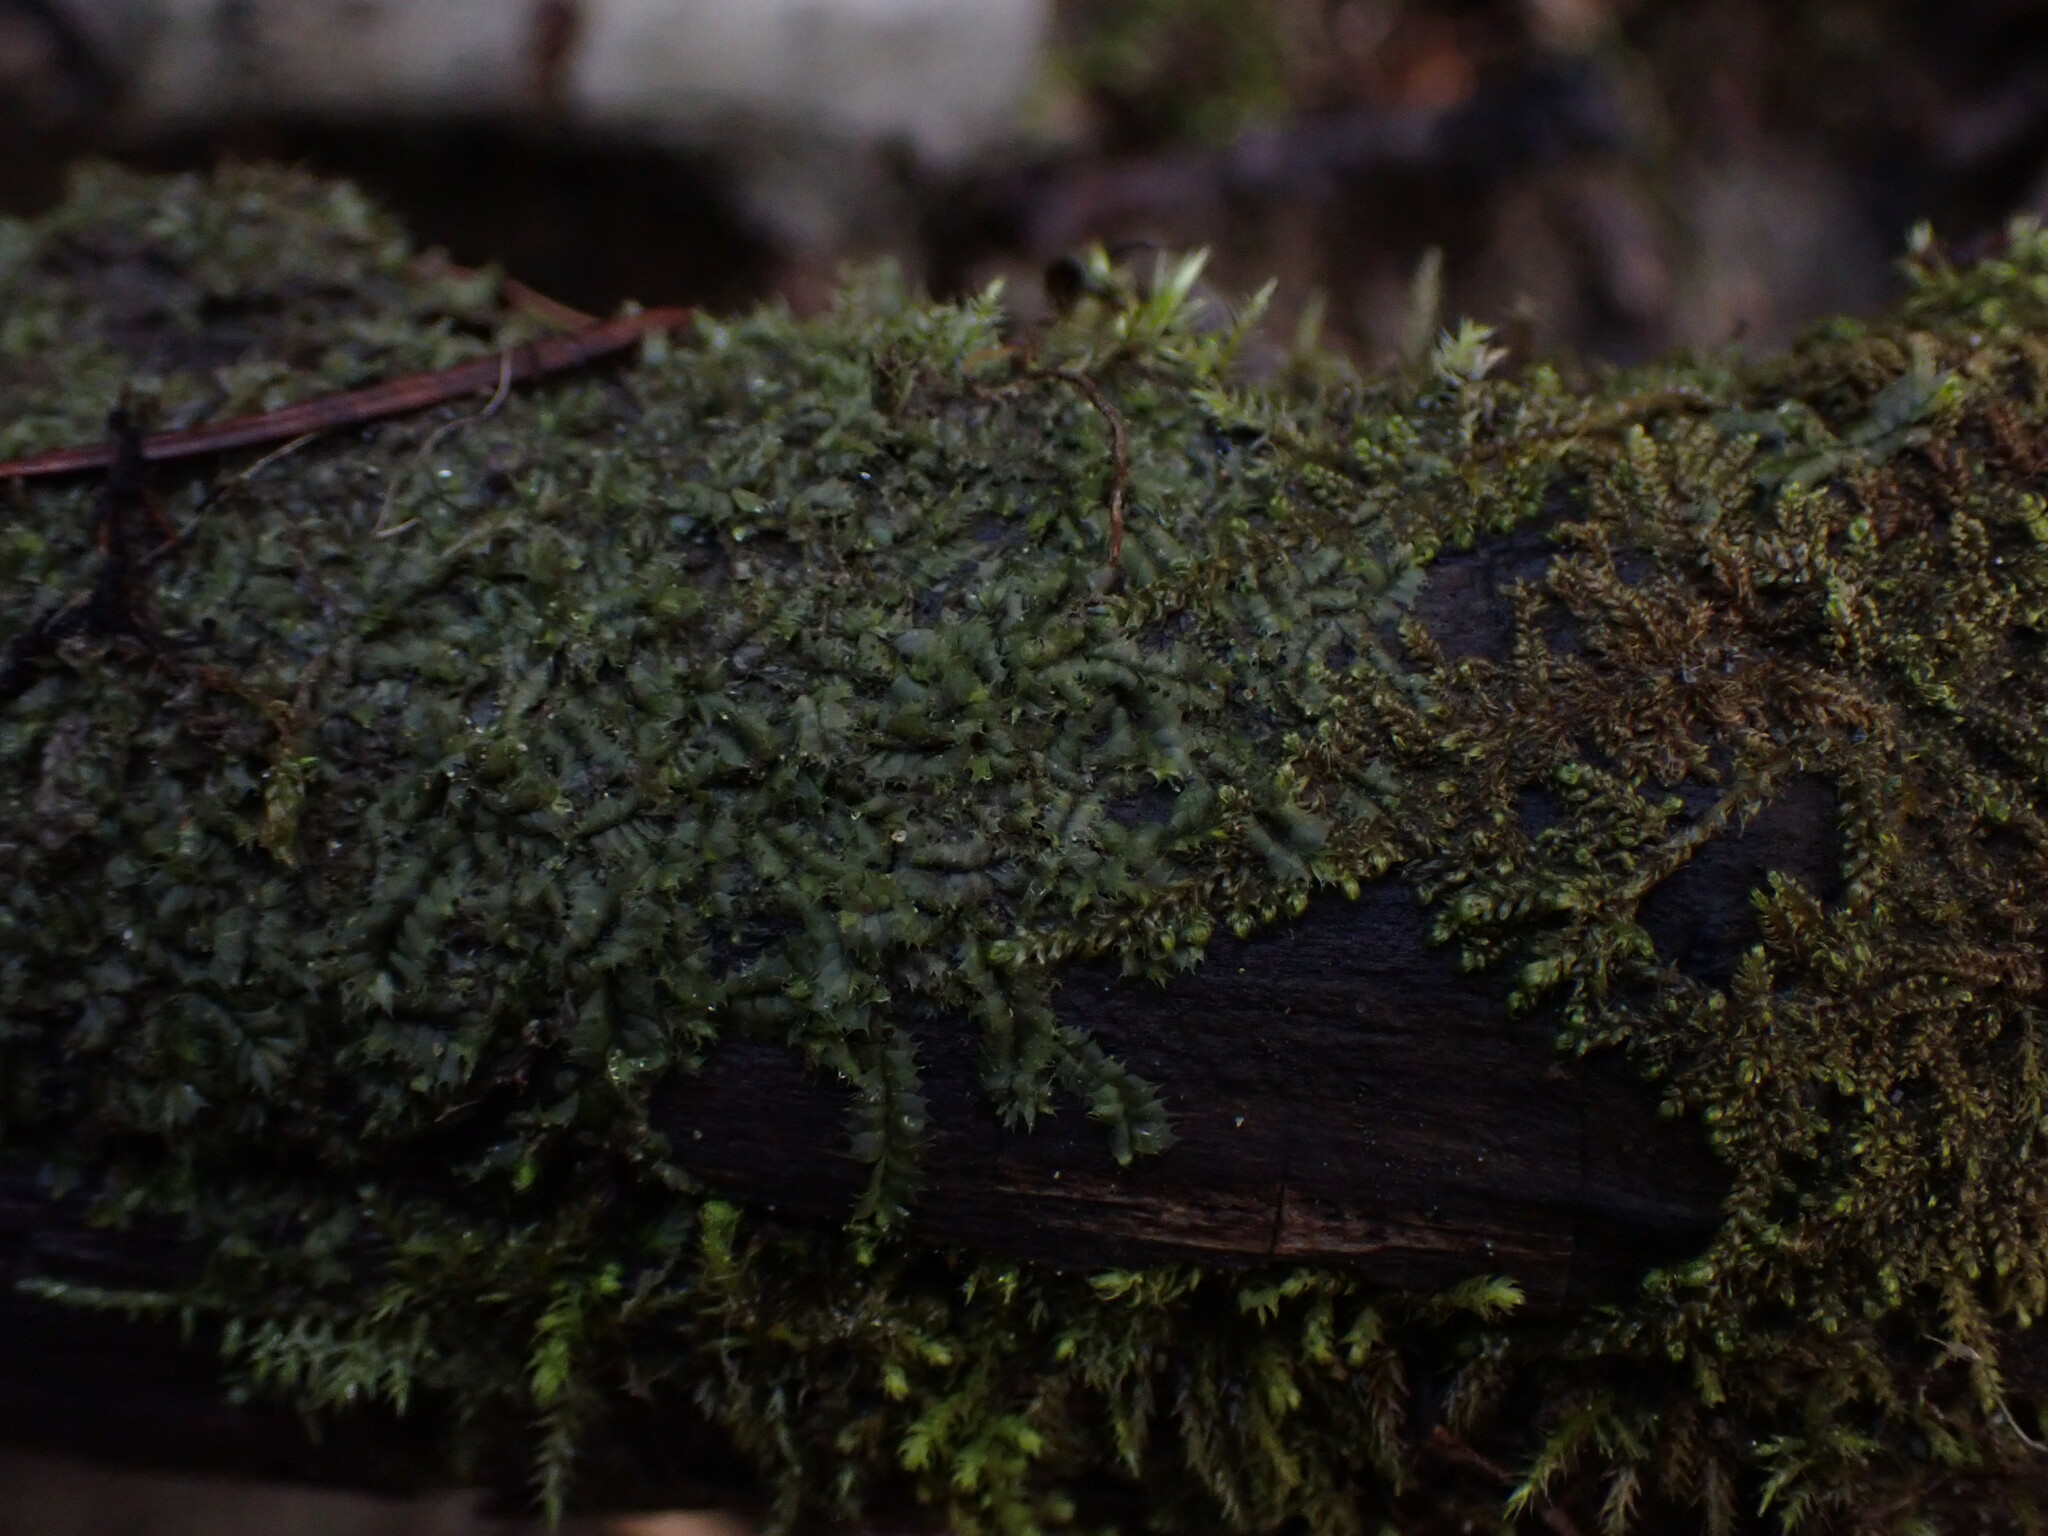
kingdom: Plantae
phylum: Marchantiophyta
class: Jungermanniopsida
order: Jungermanniales
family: Lophocoleaceae
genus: Lophocolea
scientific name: Lophocolea bidentata
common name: Bifid crestwort
